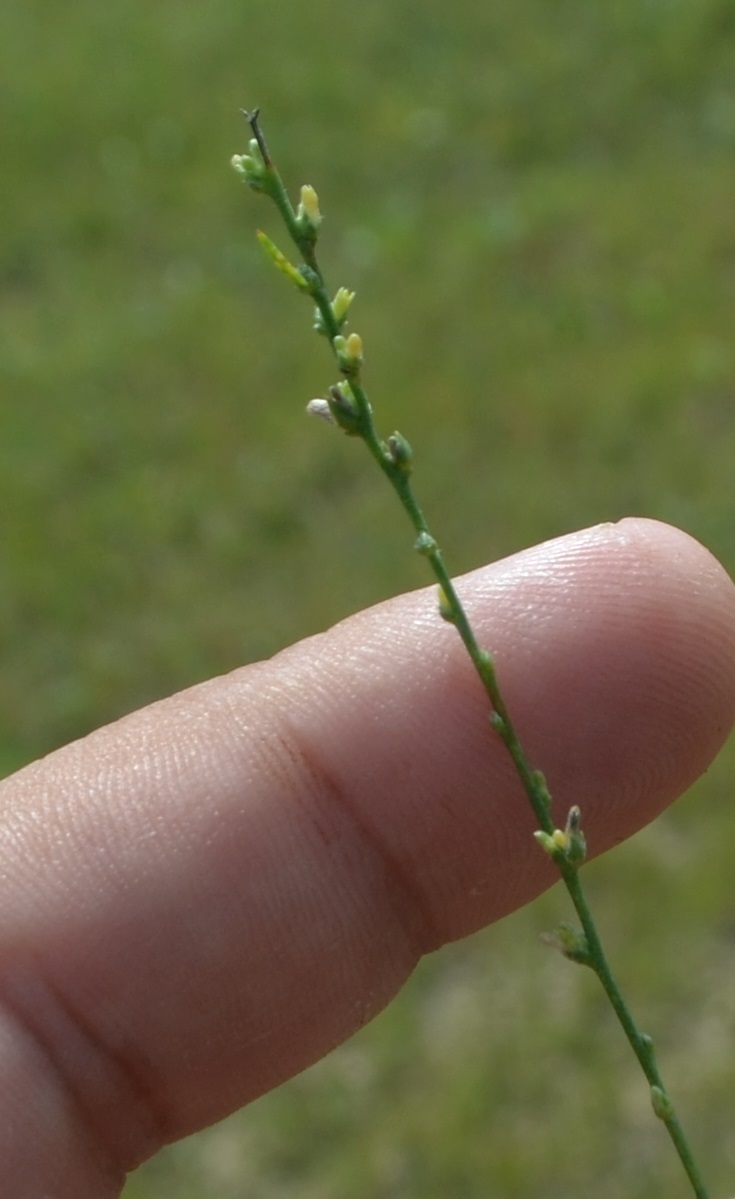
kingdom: Plantae
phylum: Tracheophyta
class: Magnoliopsida
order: Malvales
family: Thymelaeaceae
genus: Thymelaea
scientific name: Thymelaea passerina
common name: Annual thymelaea
